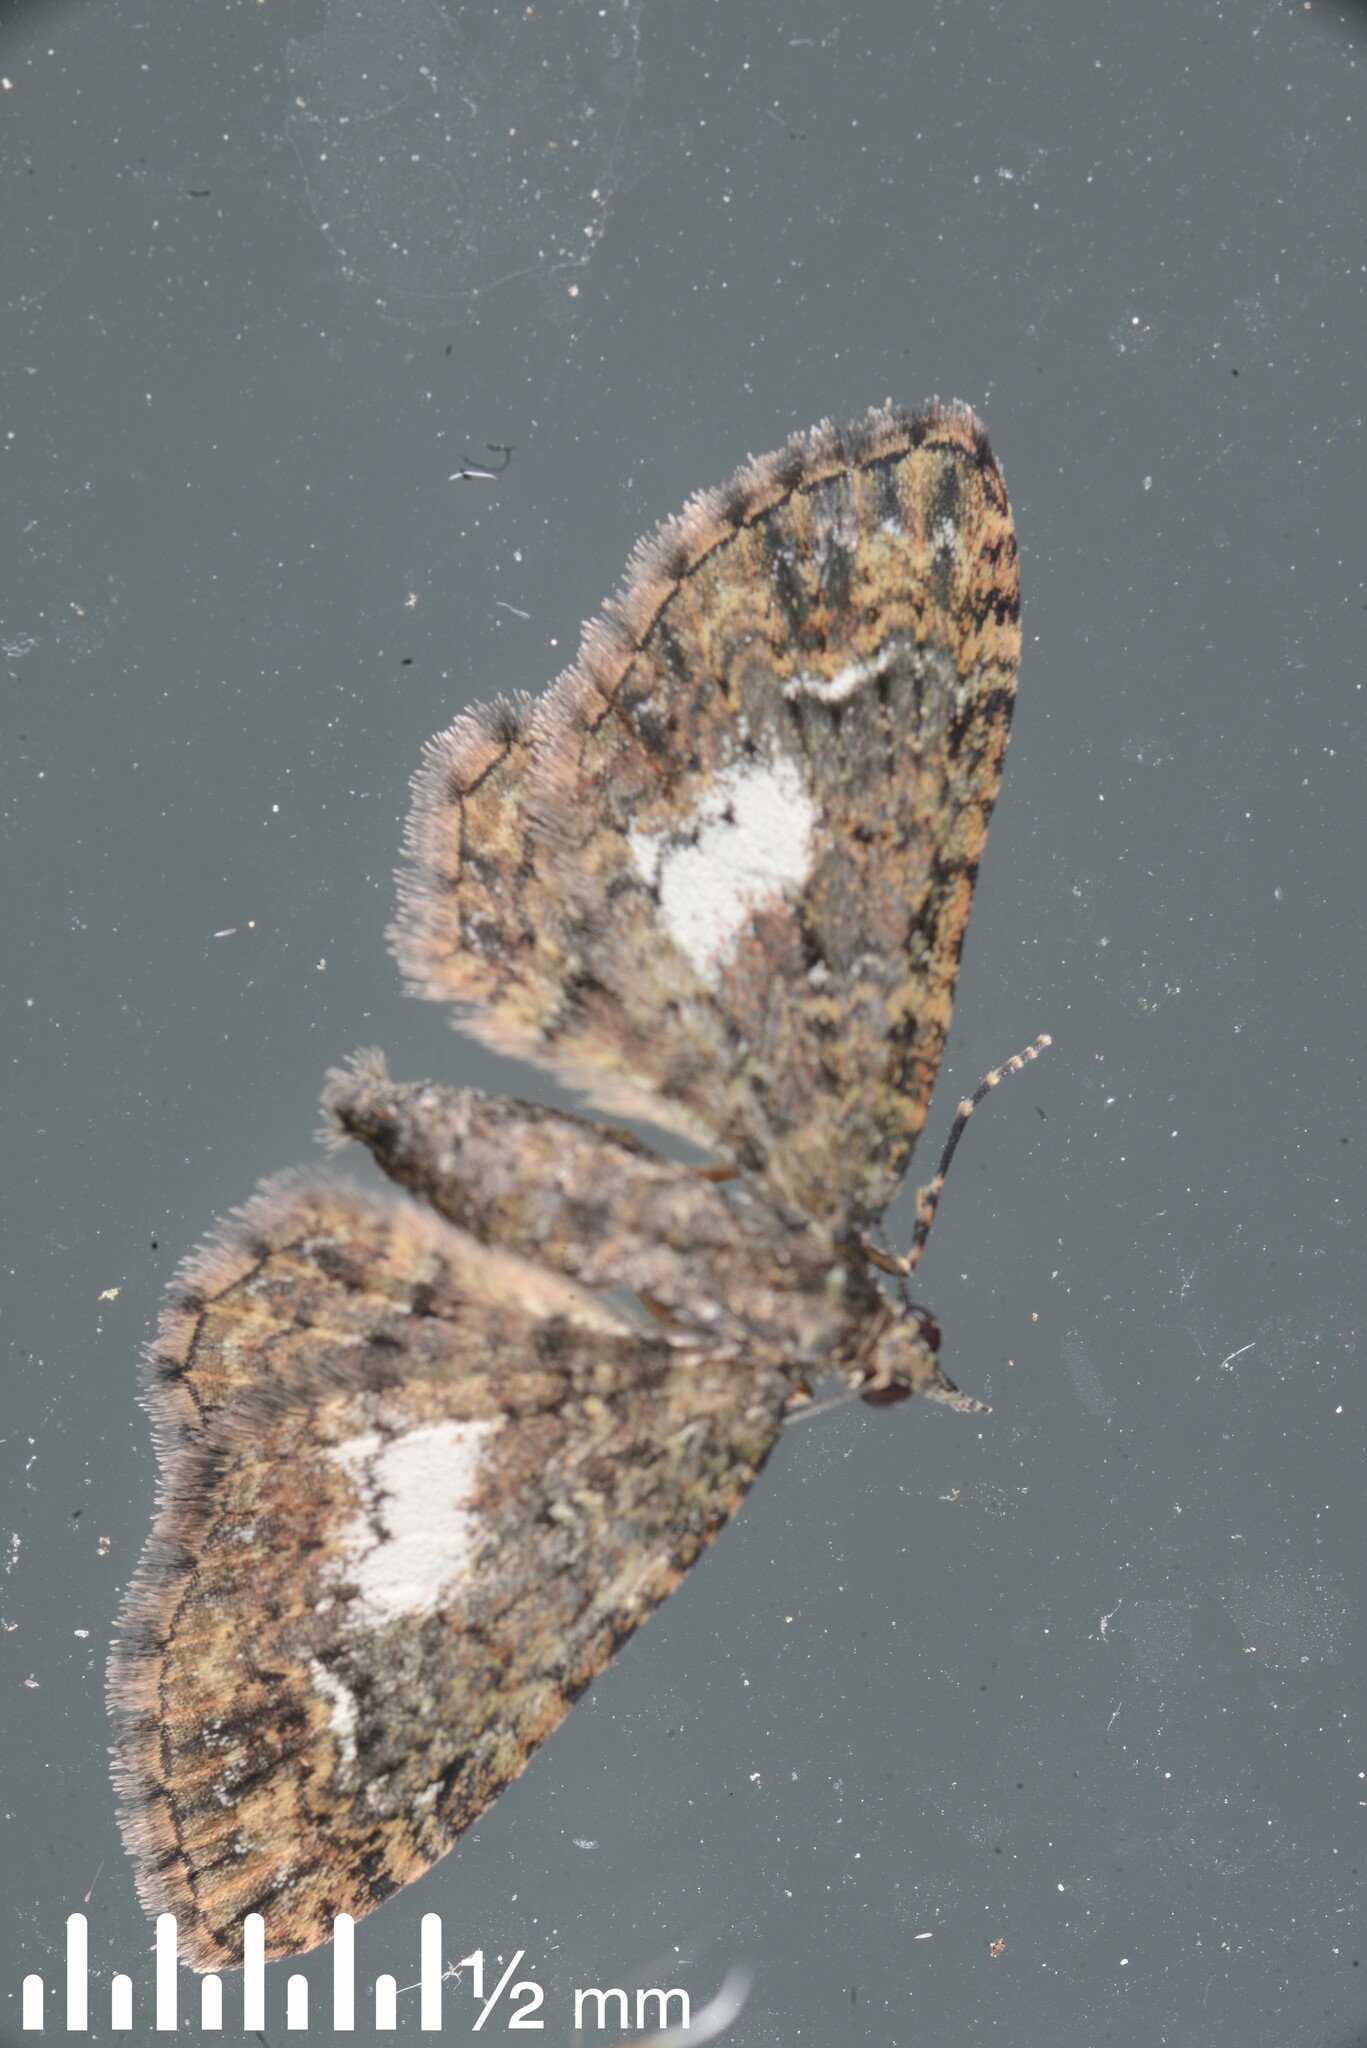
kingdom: Animalia
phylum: Arthropoda
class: Insecta
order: Lepidoptera
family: Geometridae
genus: Pasiphilodes
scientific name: Pasiphilodes testulata
